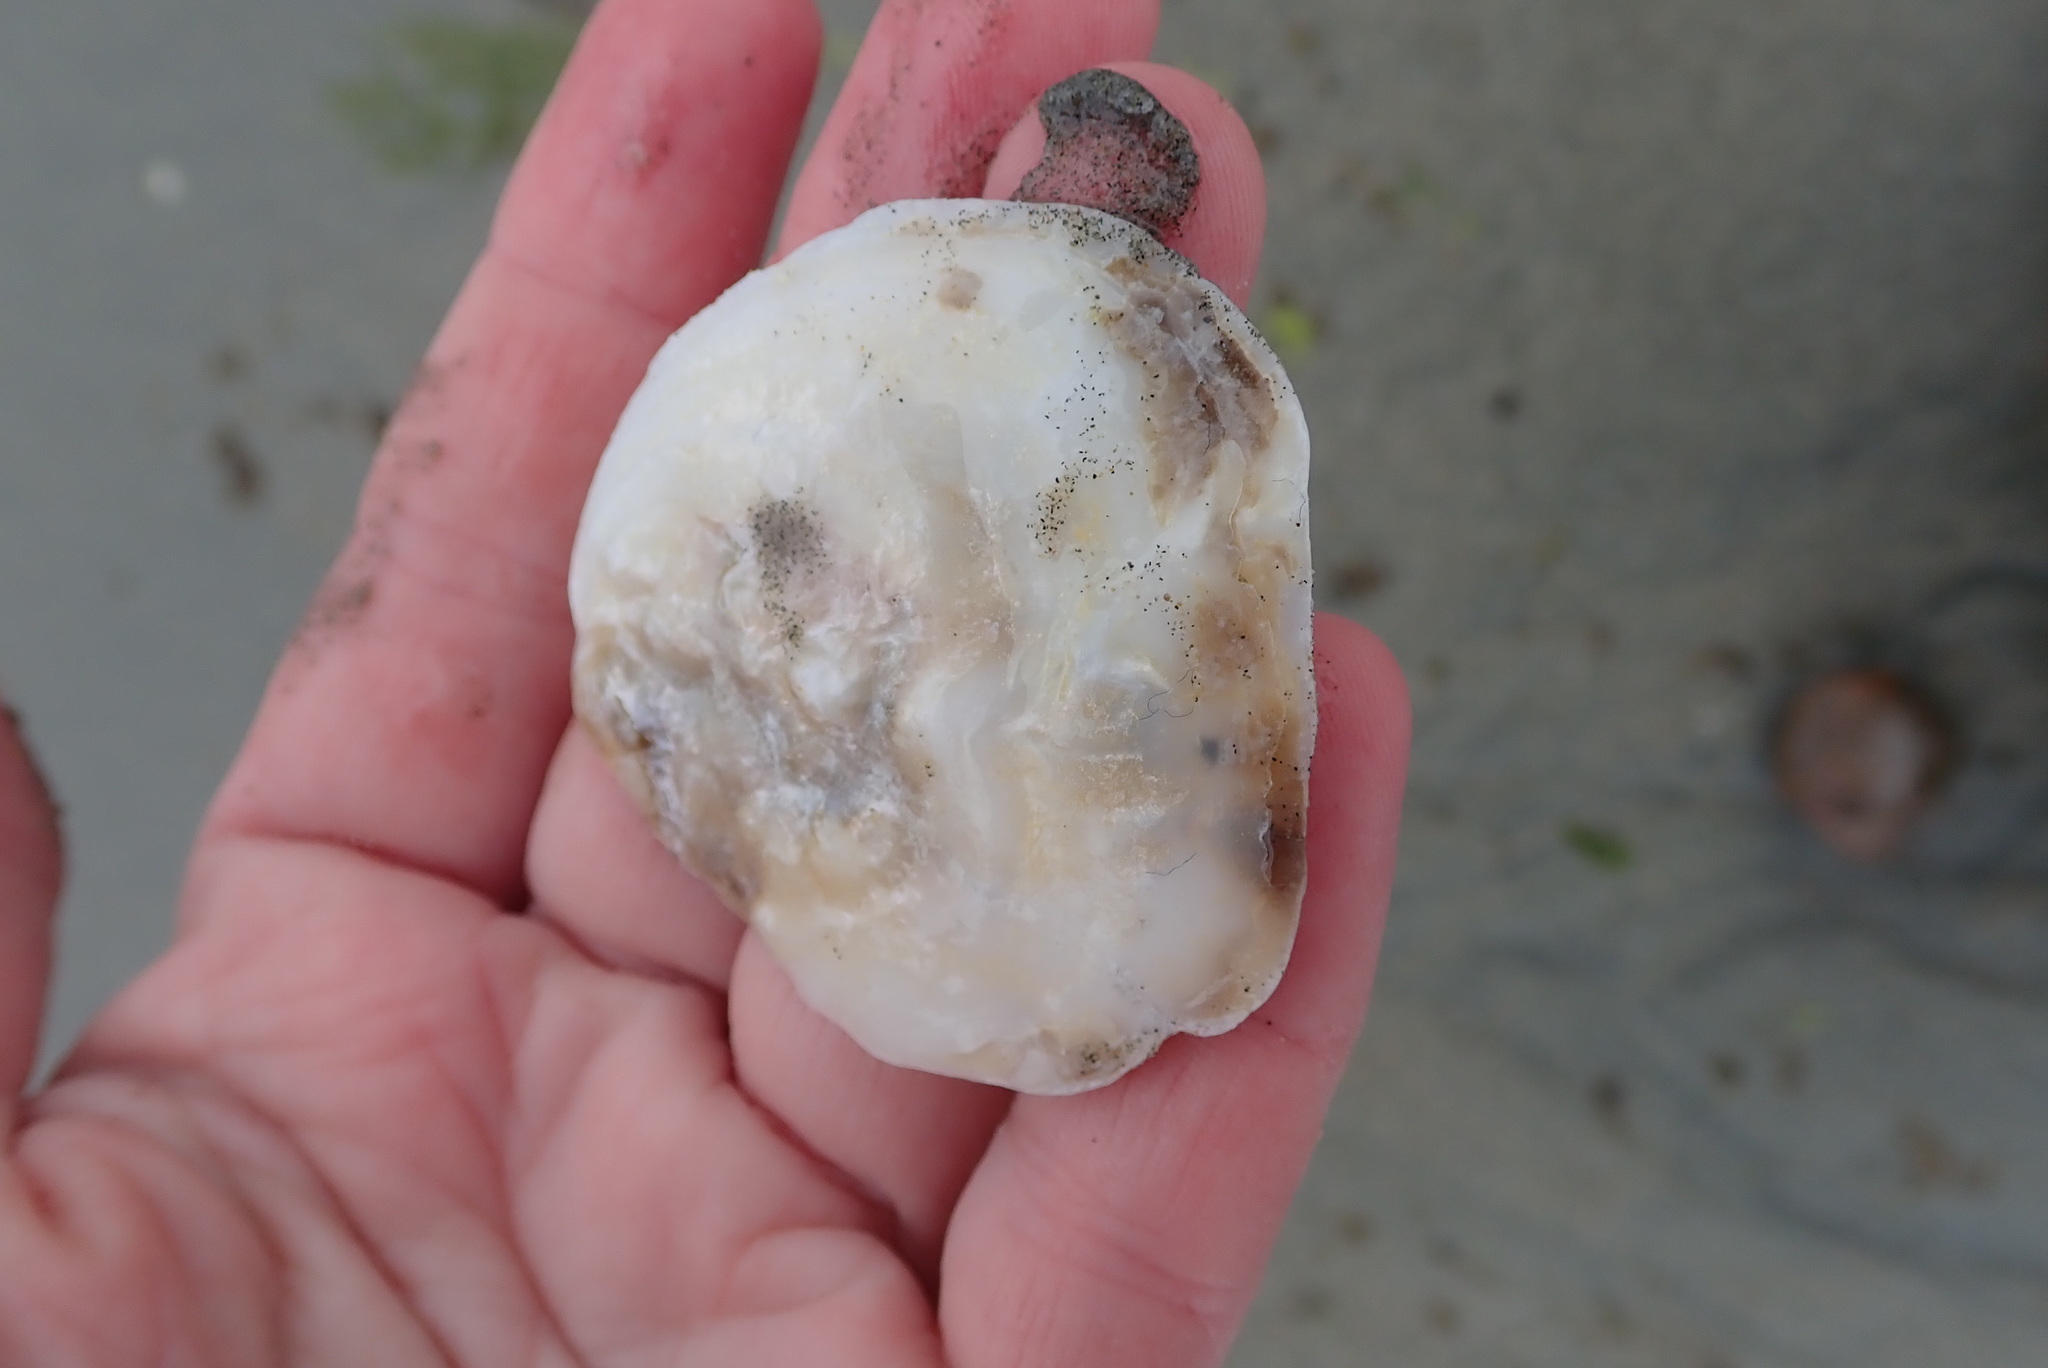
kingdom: Animalia
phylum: Mollusca
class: Bivalvia
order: Ostreida
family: Ostreidae
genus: Ostrea
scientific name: Ostrea edulis
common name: Flat oyster
